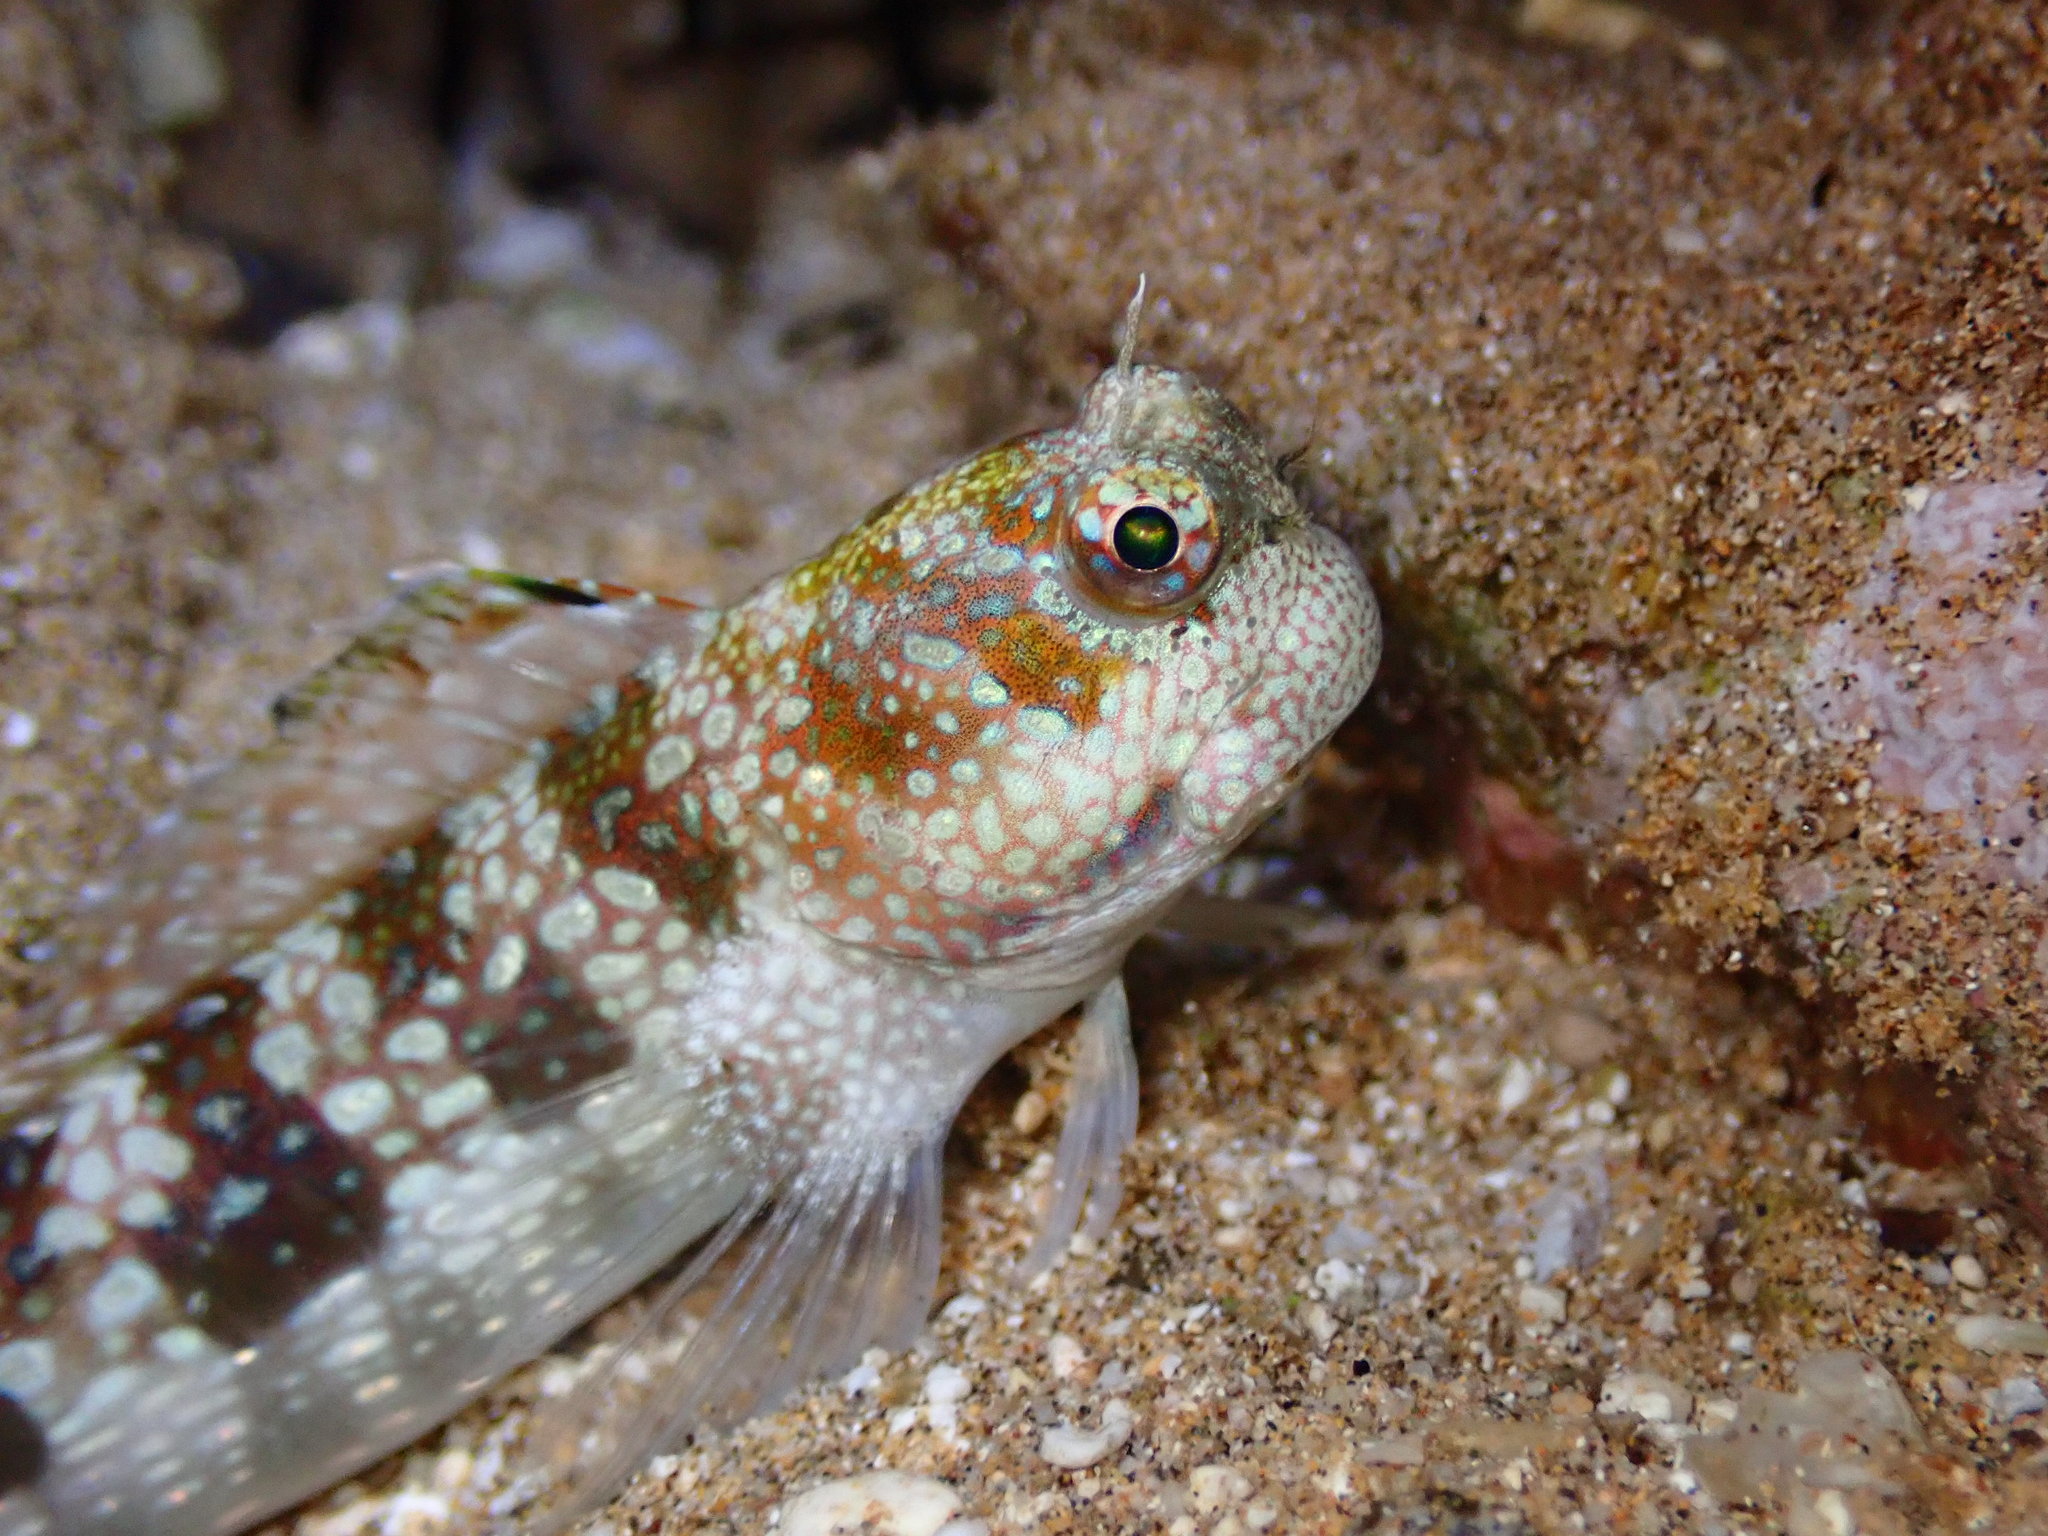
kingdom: Animalia
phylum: Chordata
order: Perciformes
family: Blenniidae
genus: Blenniella
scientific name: Blenniella gibbifrons
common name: Picture rockskipper
